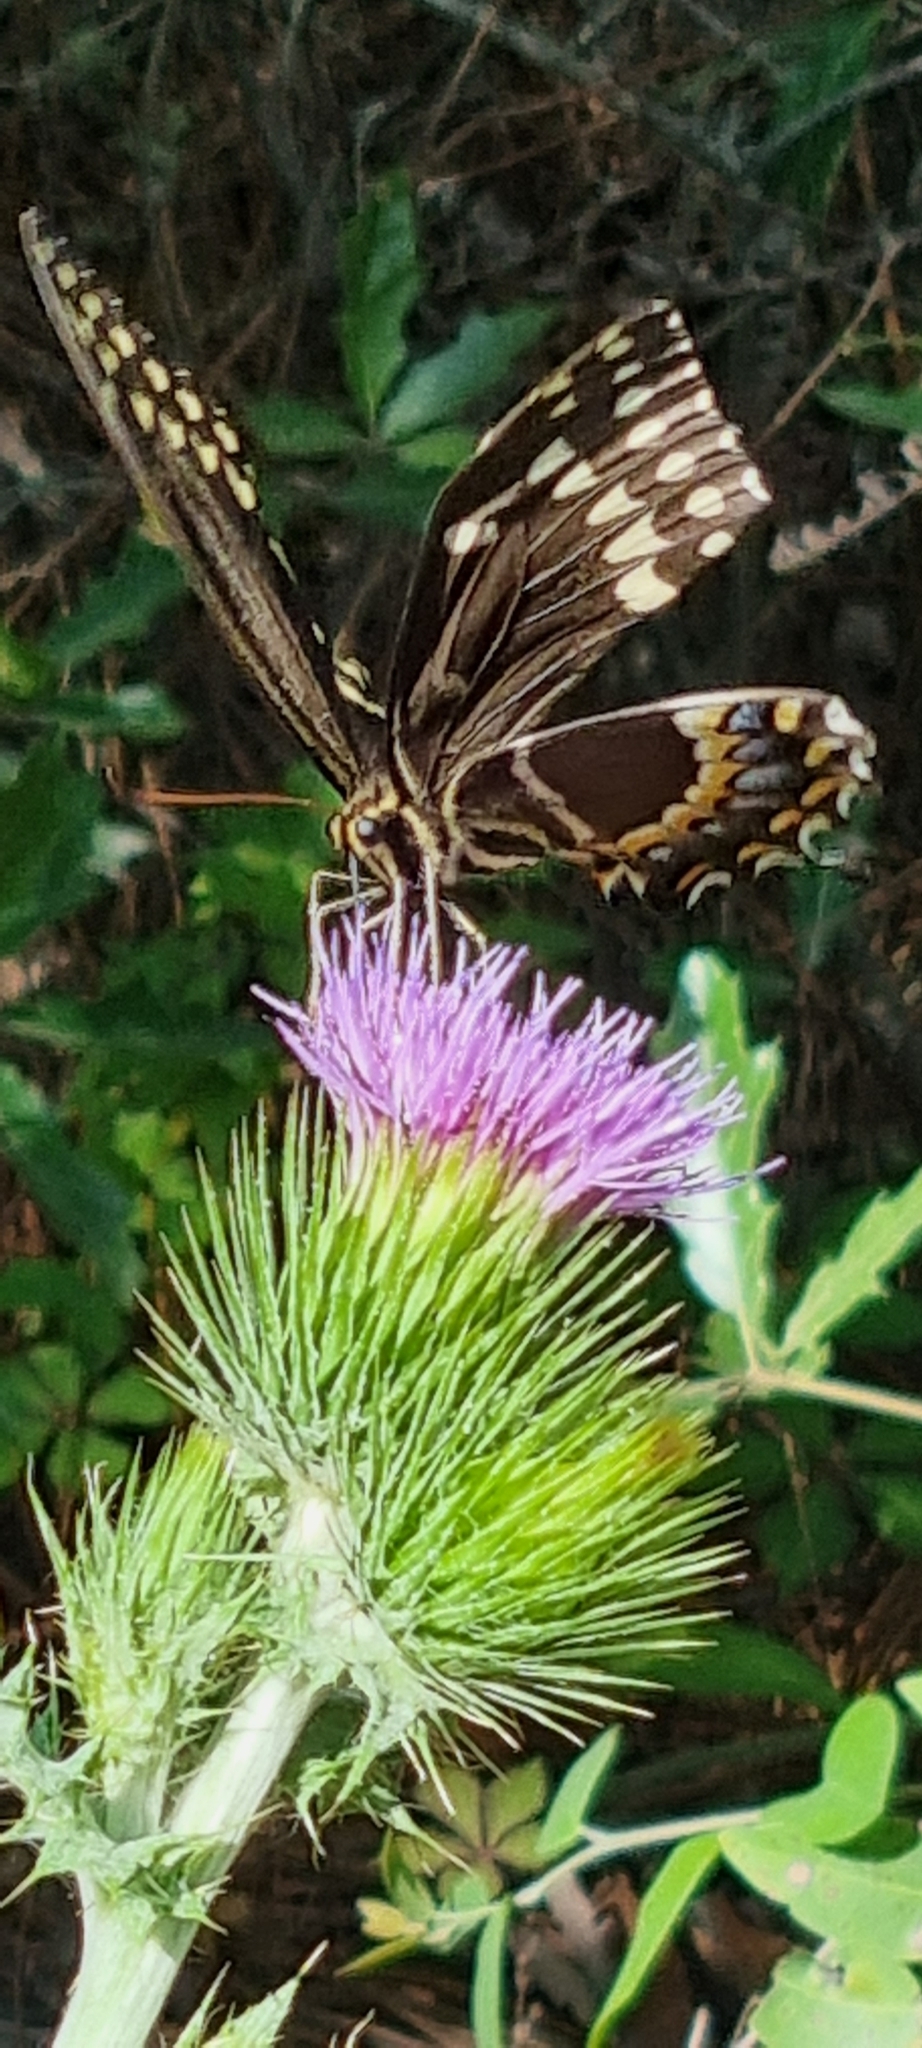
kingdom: Animalia
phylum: Arthropoda
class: Insecta
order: Lepidoptera
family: Papilionidae
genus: Papilio
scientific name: Papilio palamedes
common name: Palamedes swallowtail
